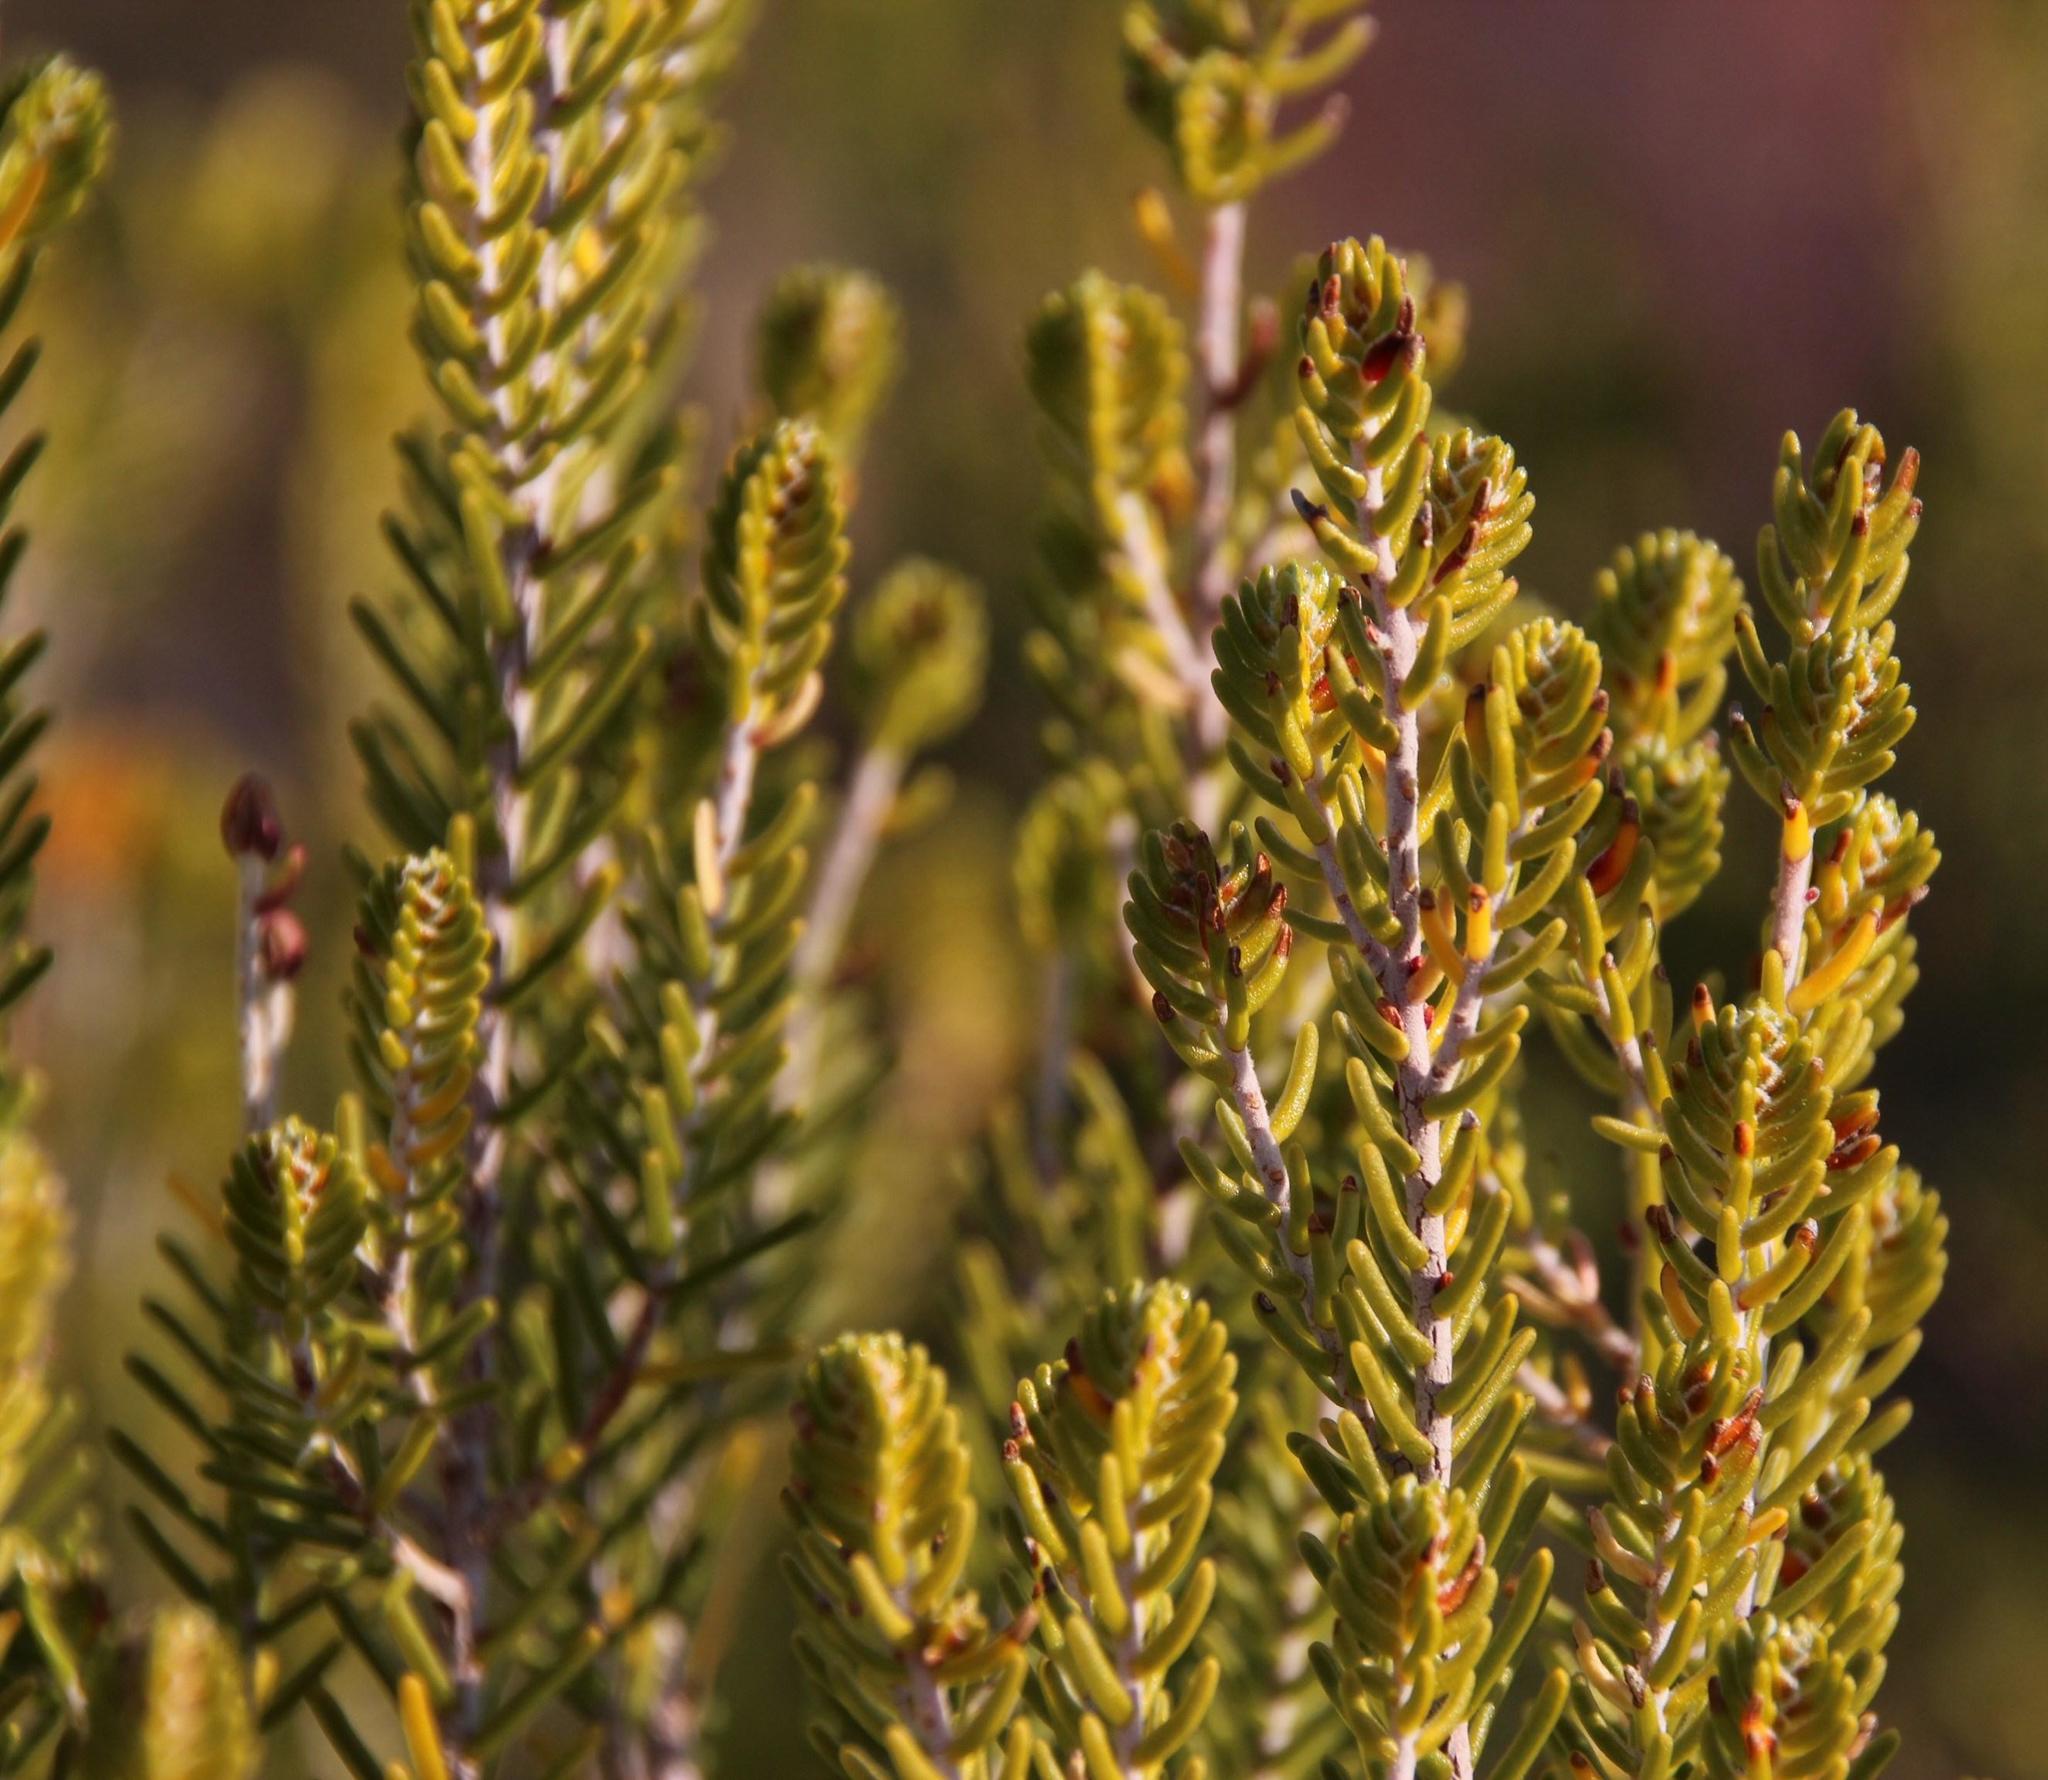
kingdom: Plantae
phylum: Tracheophyta
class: Magnoliopsida
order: Malvales
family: Thymelaeaceae
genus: Passerina
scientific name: Passerina obtusifolia
